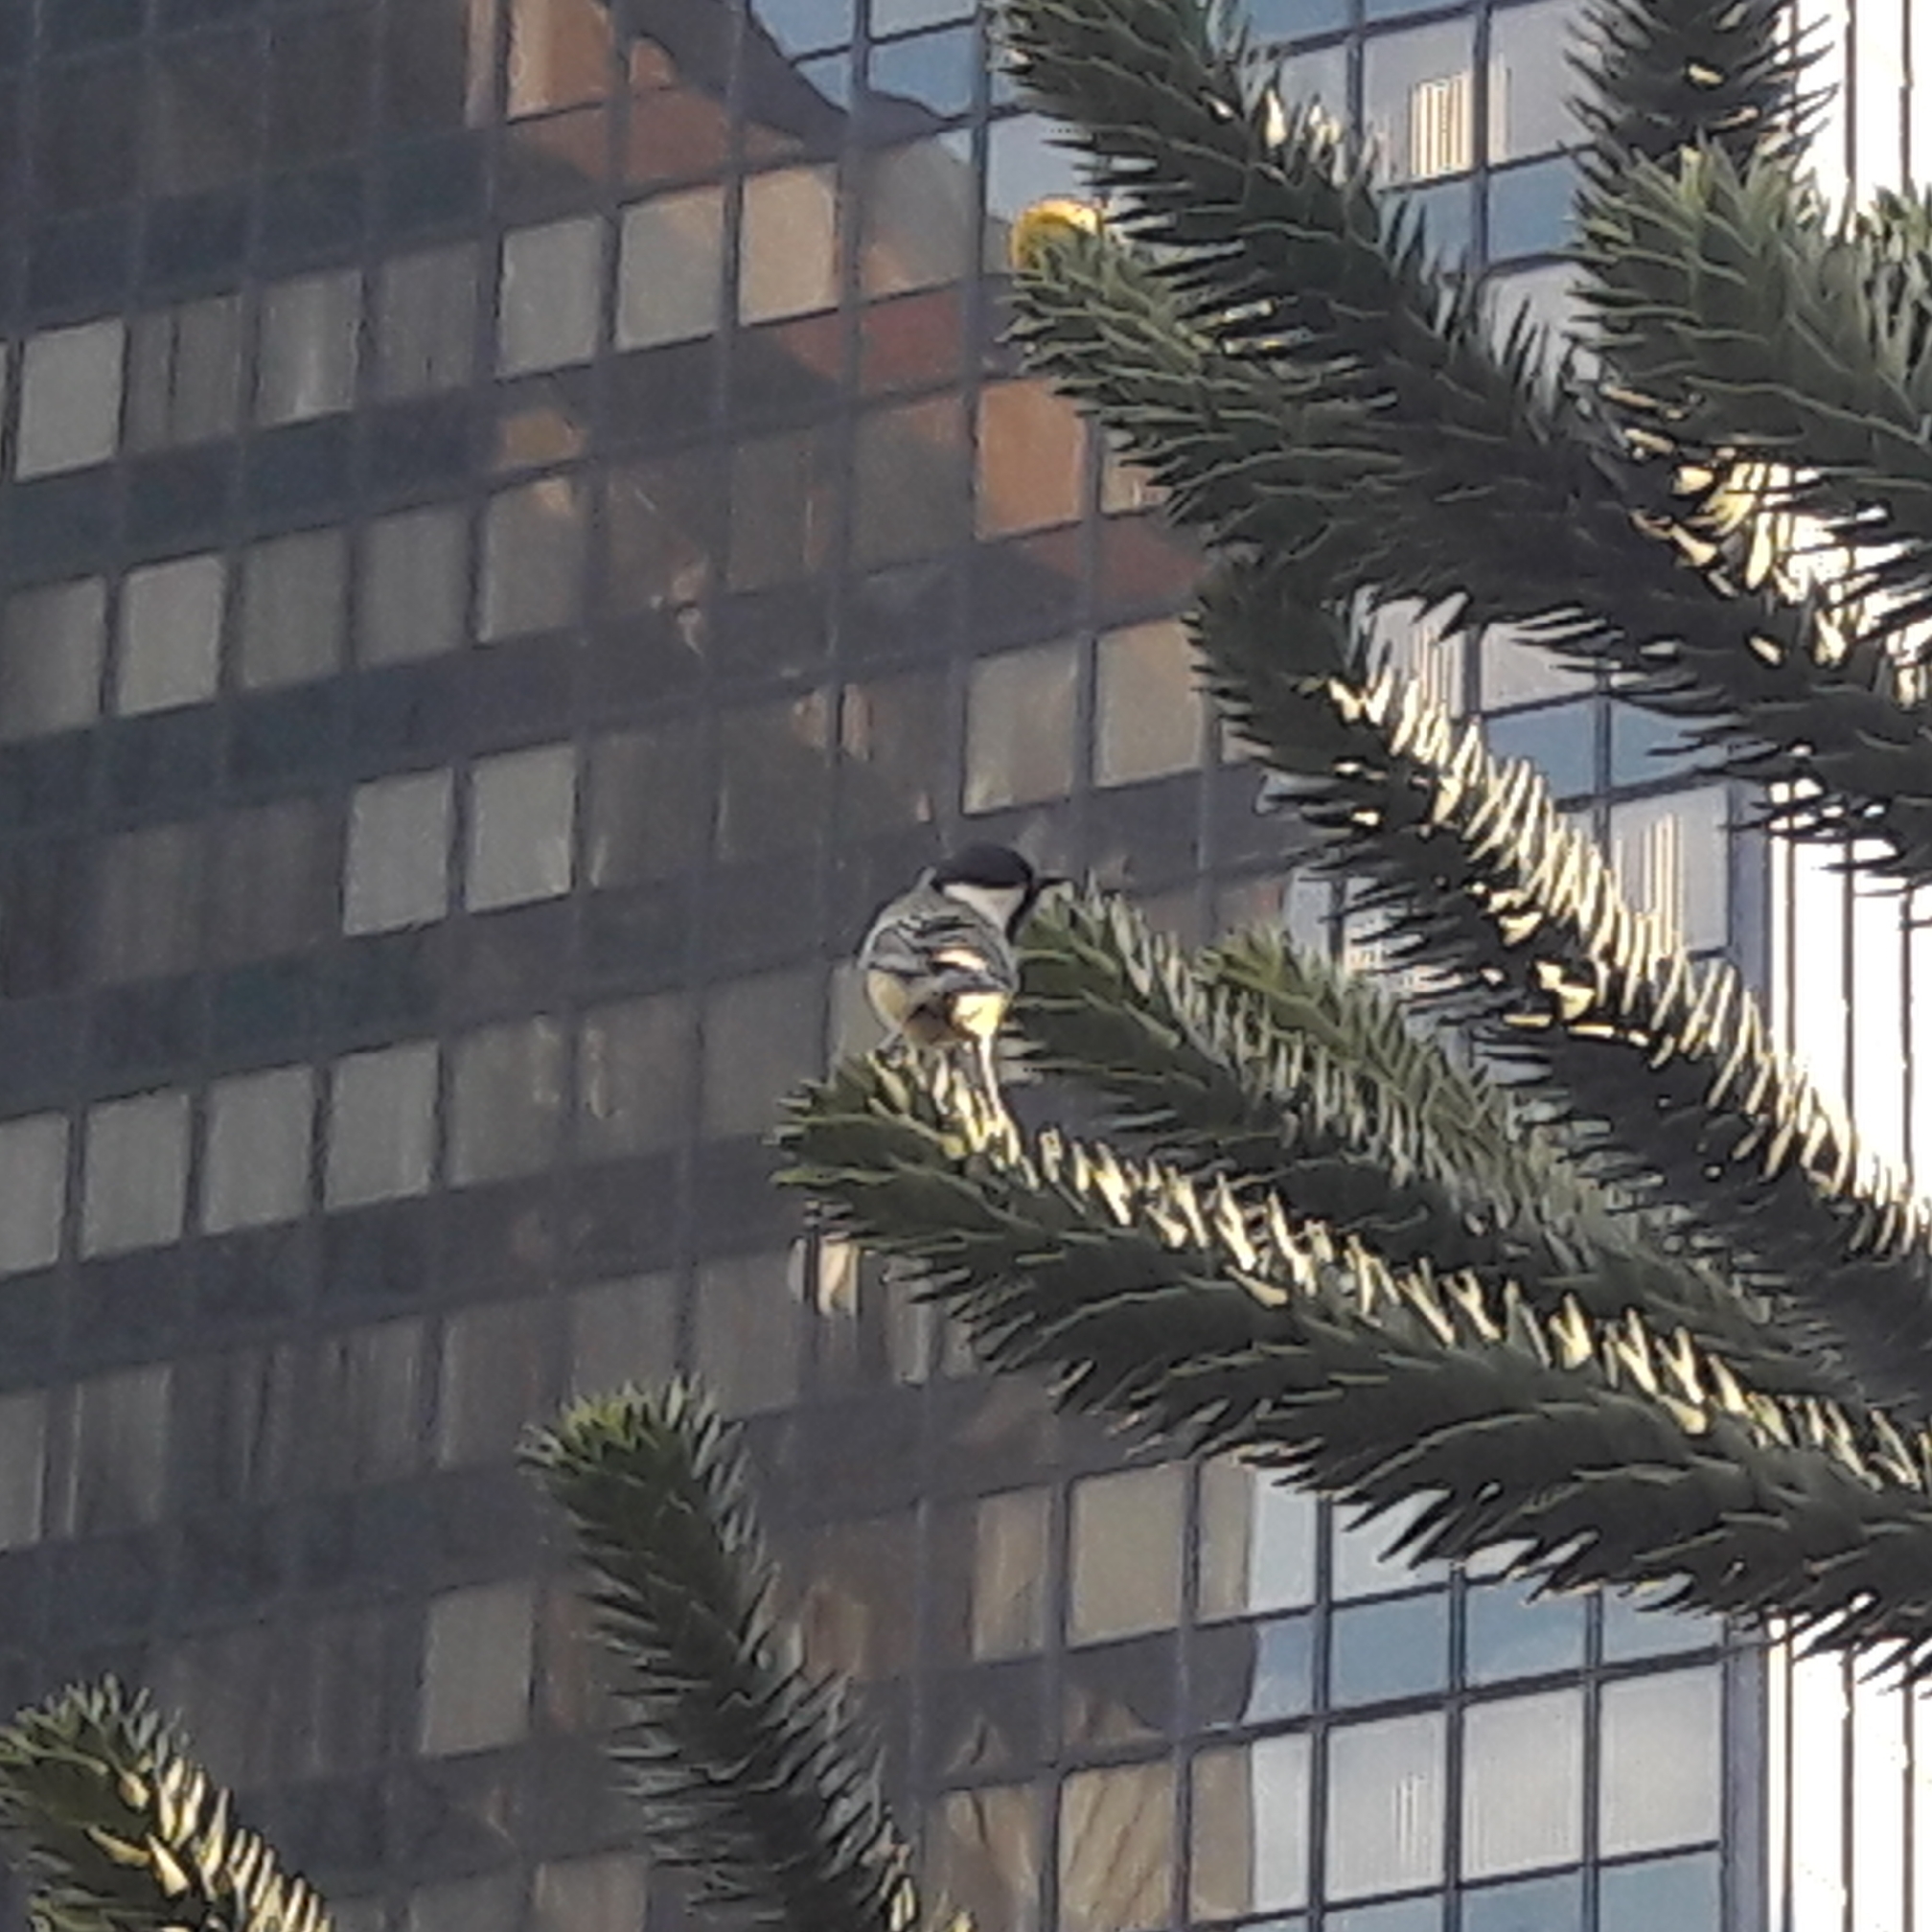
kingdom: Animalia
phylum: Chordata
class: Aves
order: Passeriformes
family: Paridae
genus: Parus
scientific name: Parus major
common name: Great tit
